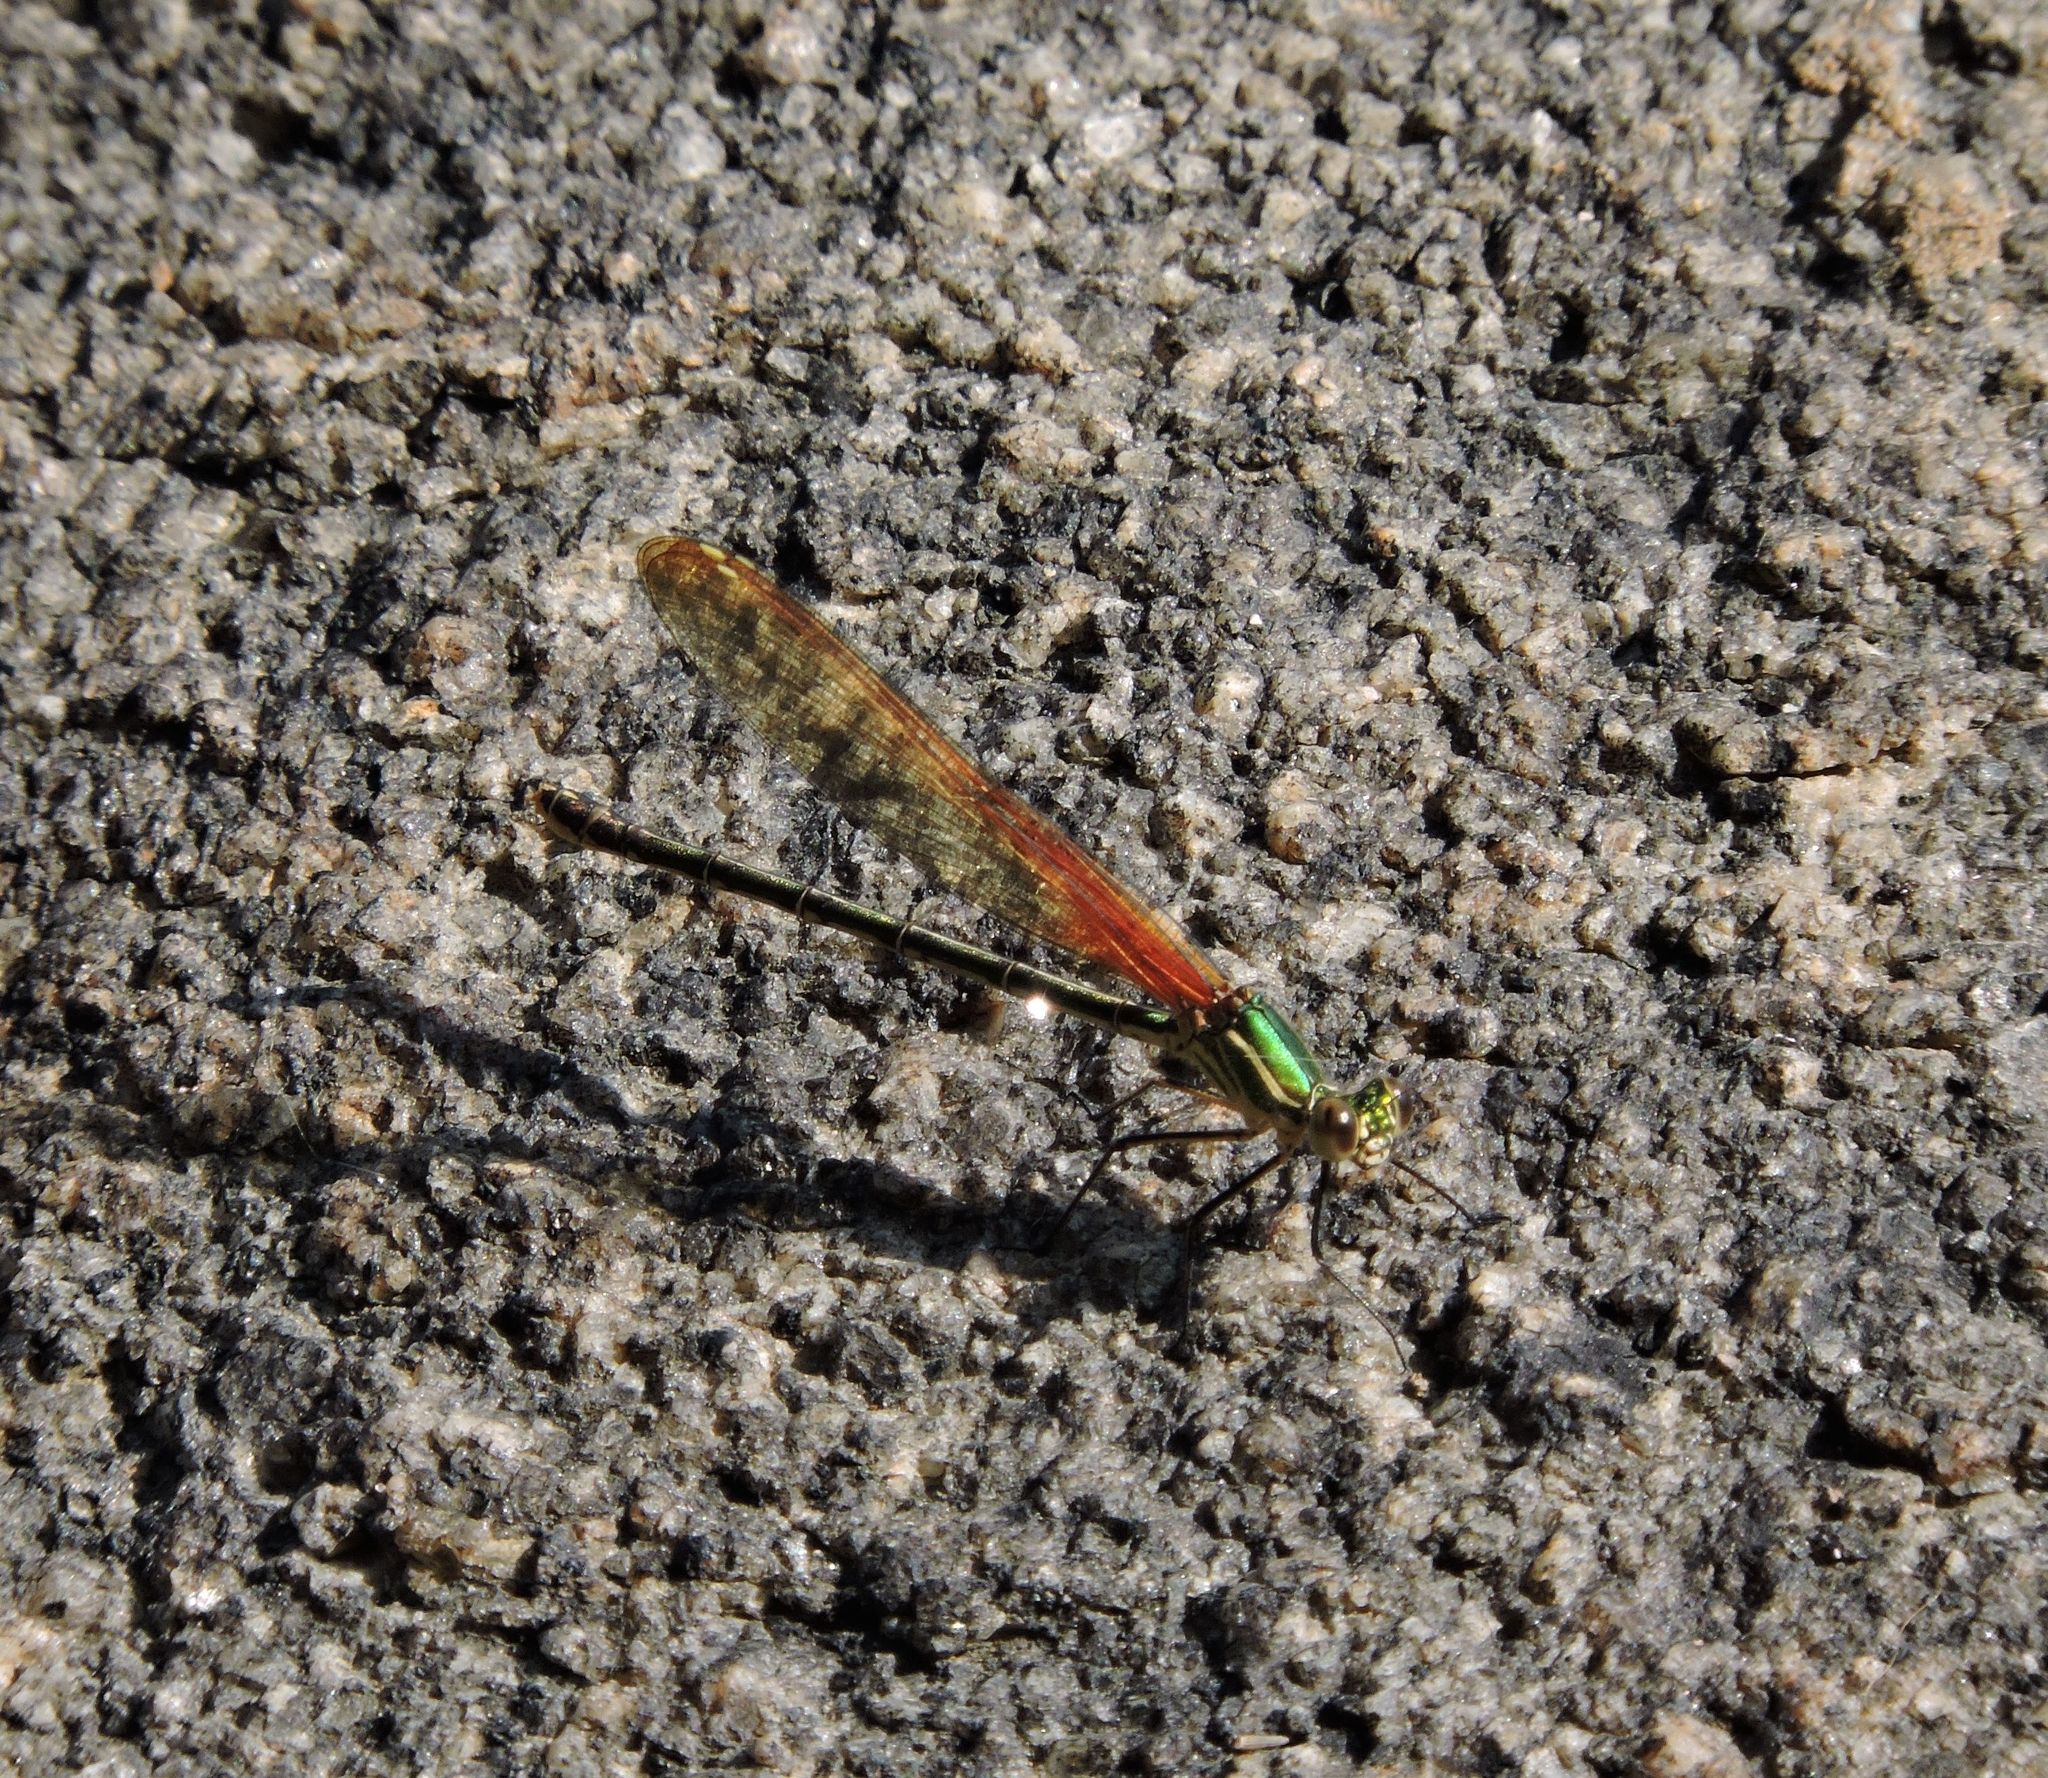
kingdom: Animalia
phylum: Arthropoda
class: Insecta
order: Odonata
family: Calopterygidae
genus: Hetaerina
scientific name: Hetaerina americana
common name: American rubyspot
